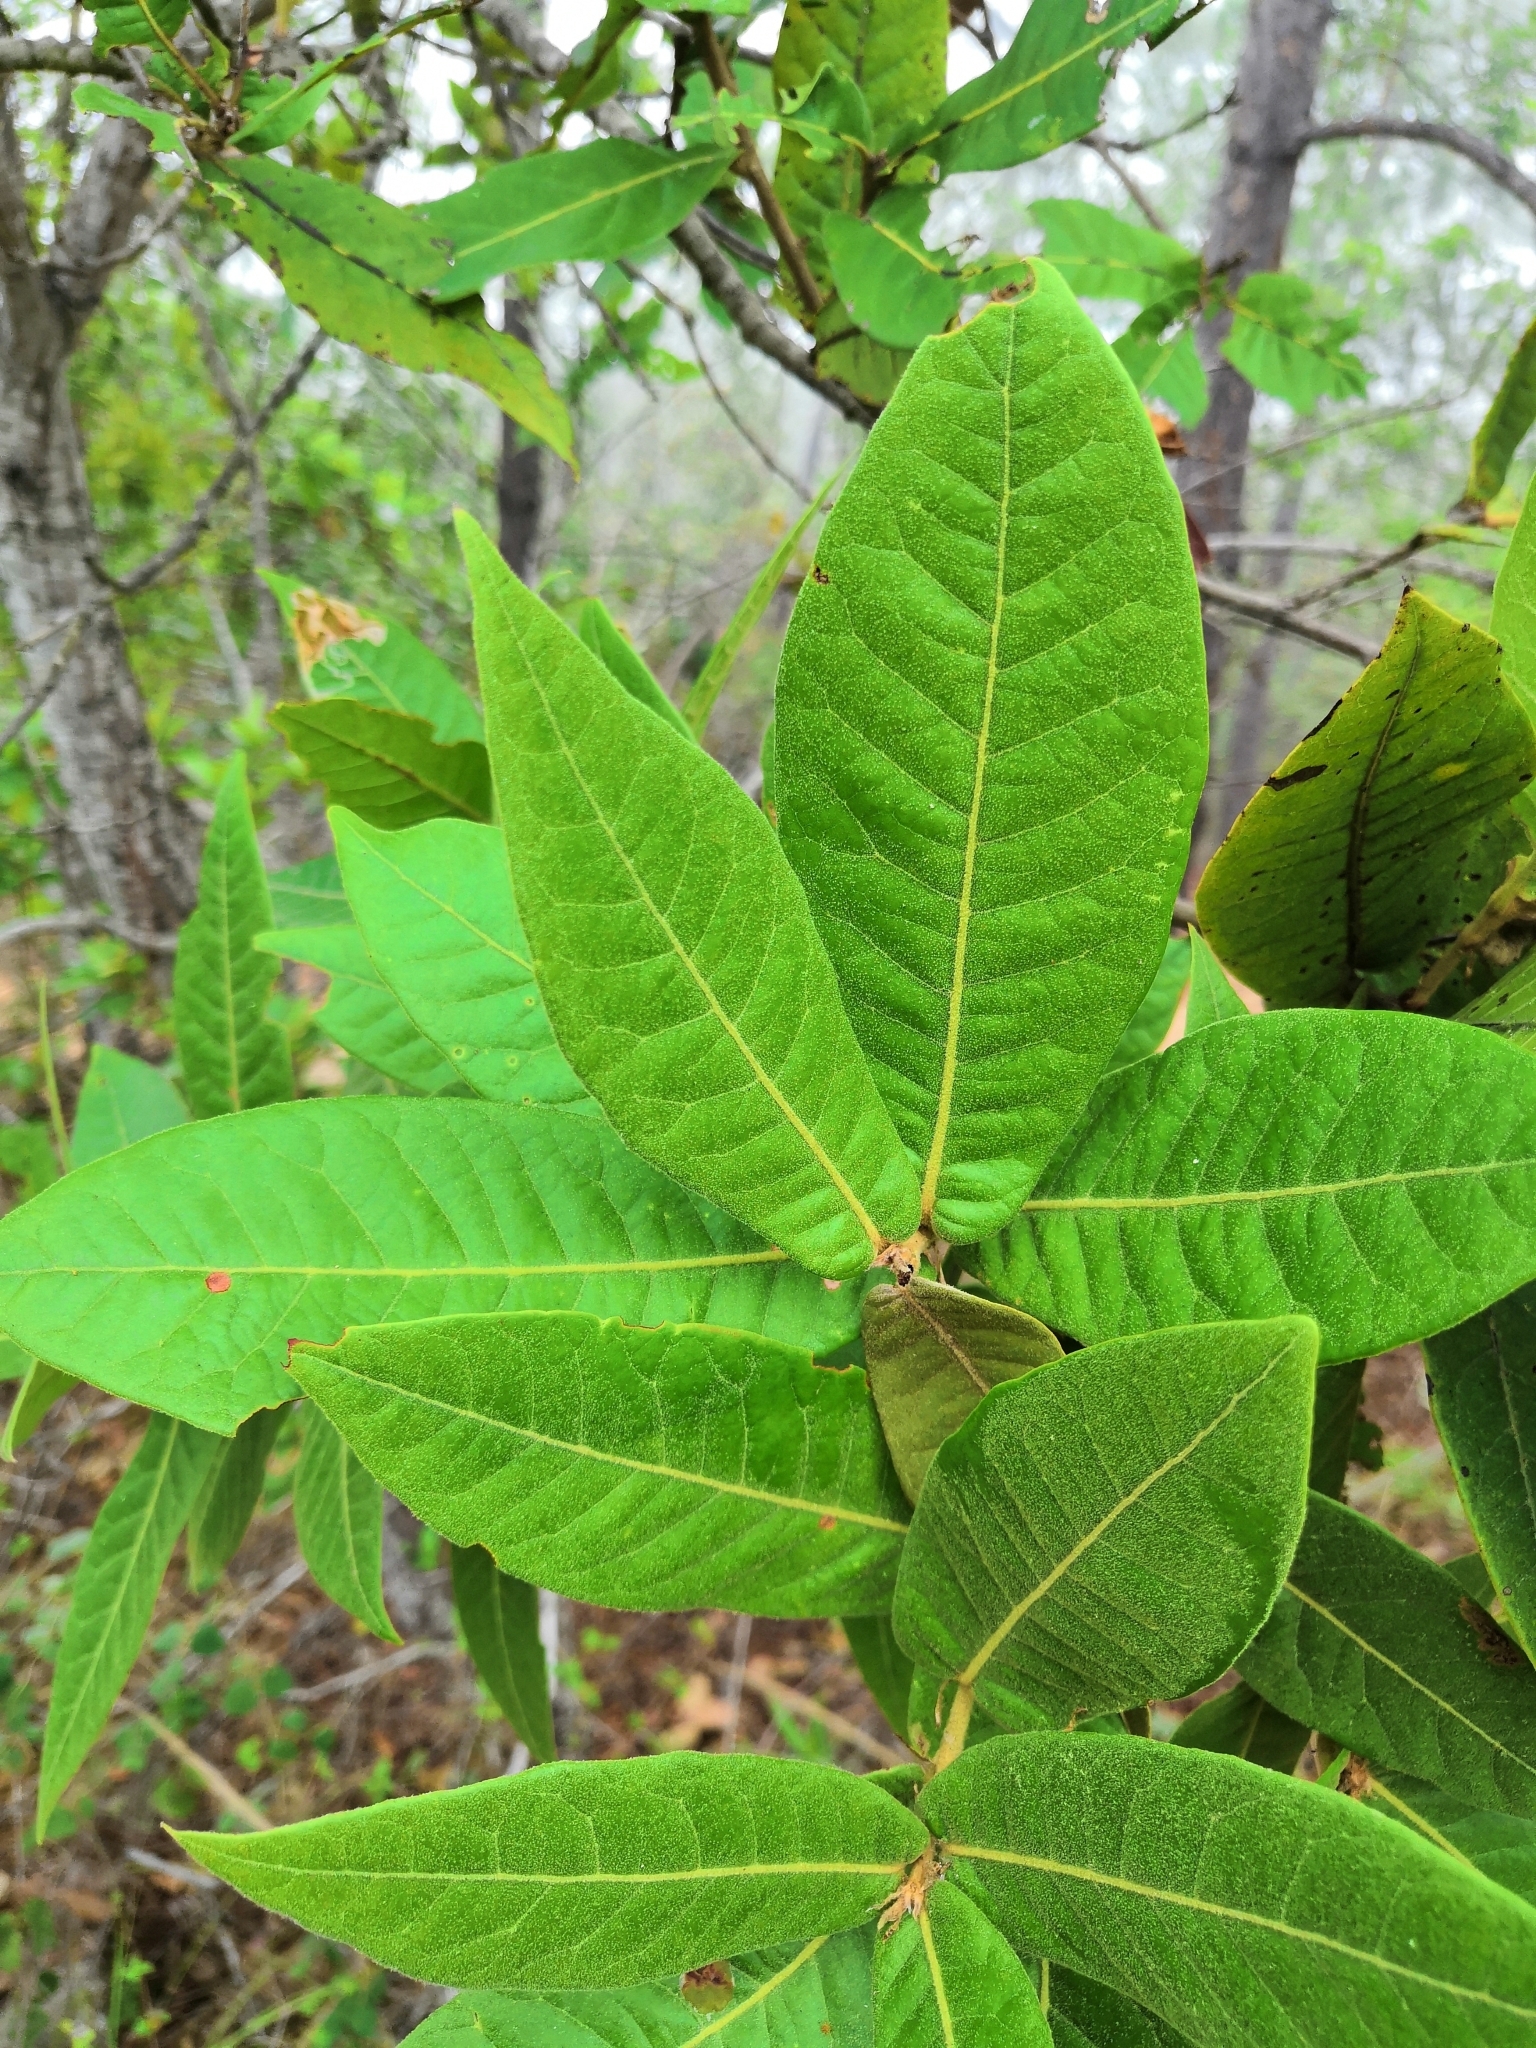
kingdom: Plantae
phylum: Tracheophyta
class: Magnoliopsida
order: Fagales
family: Fagaceae
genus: Quercus
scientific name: Quercus elliptica
